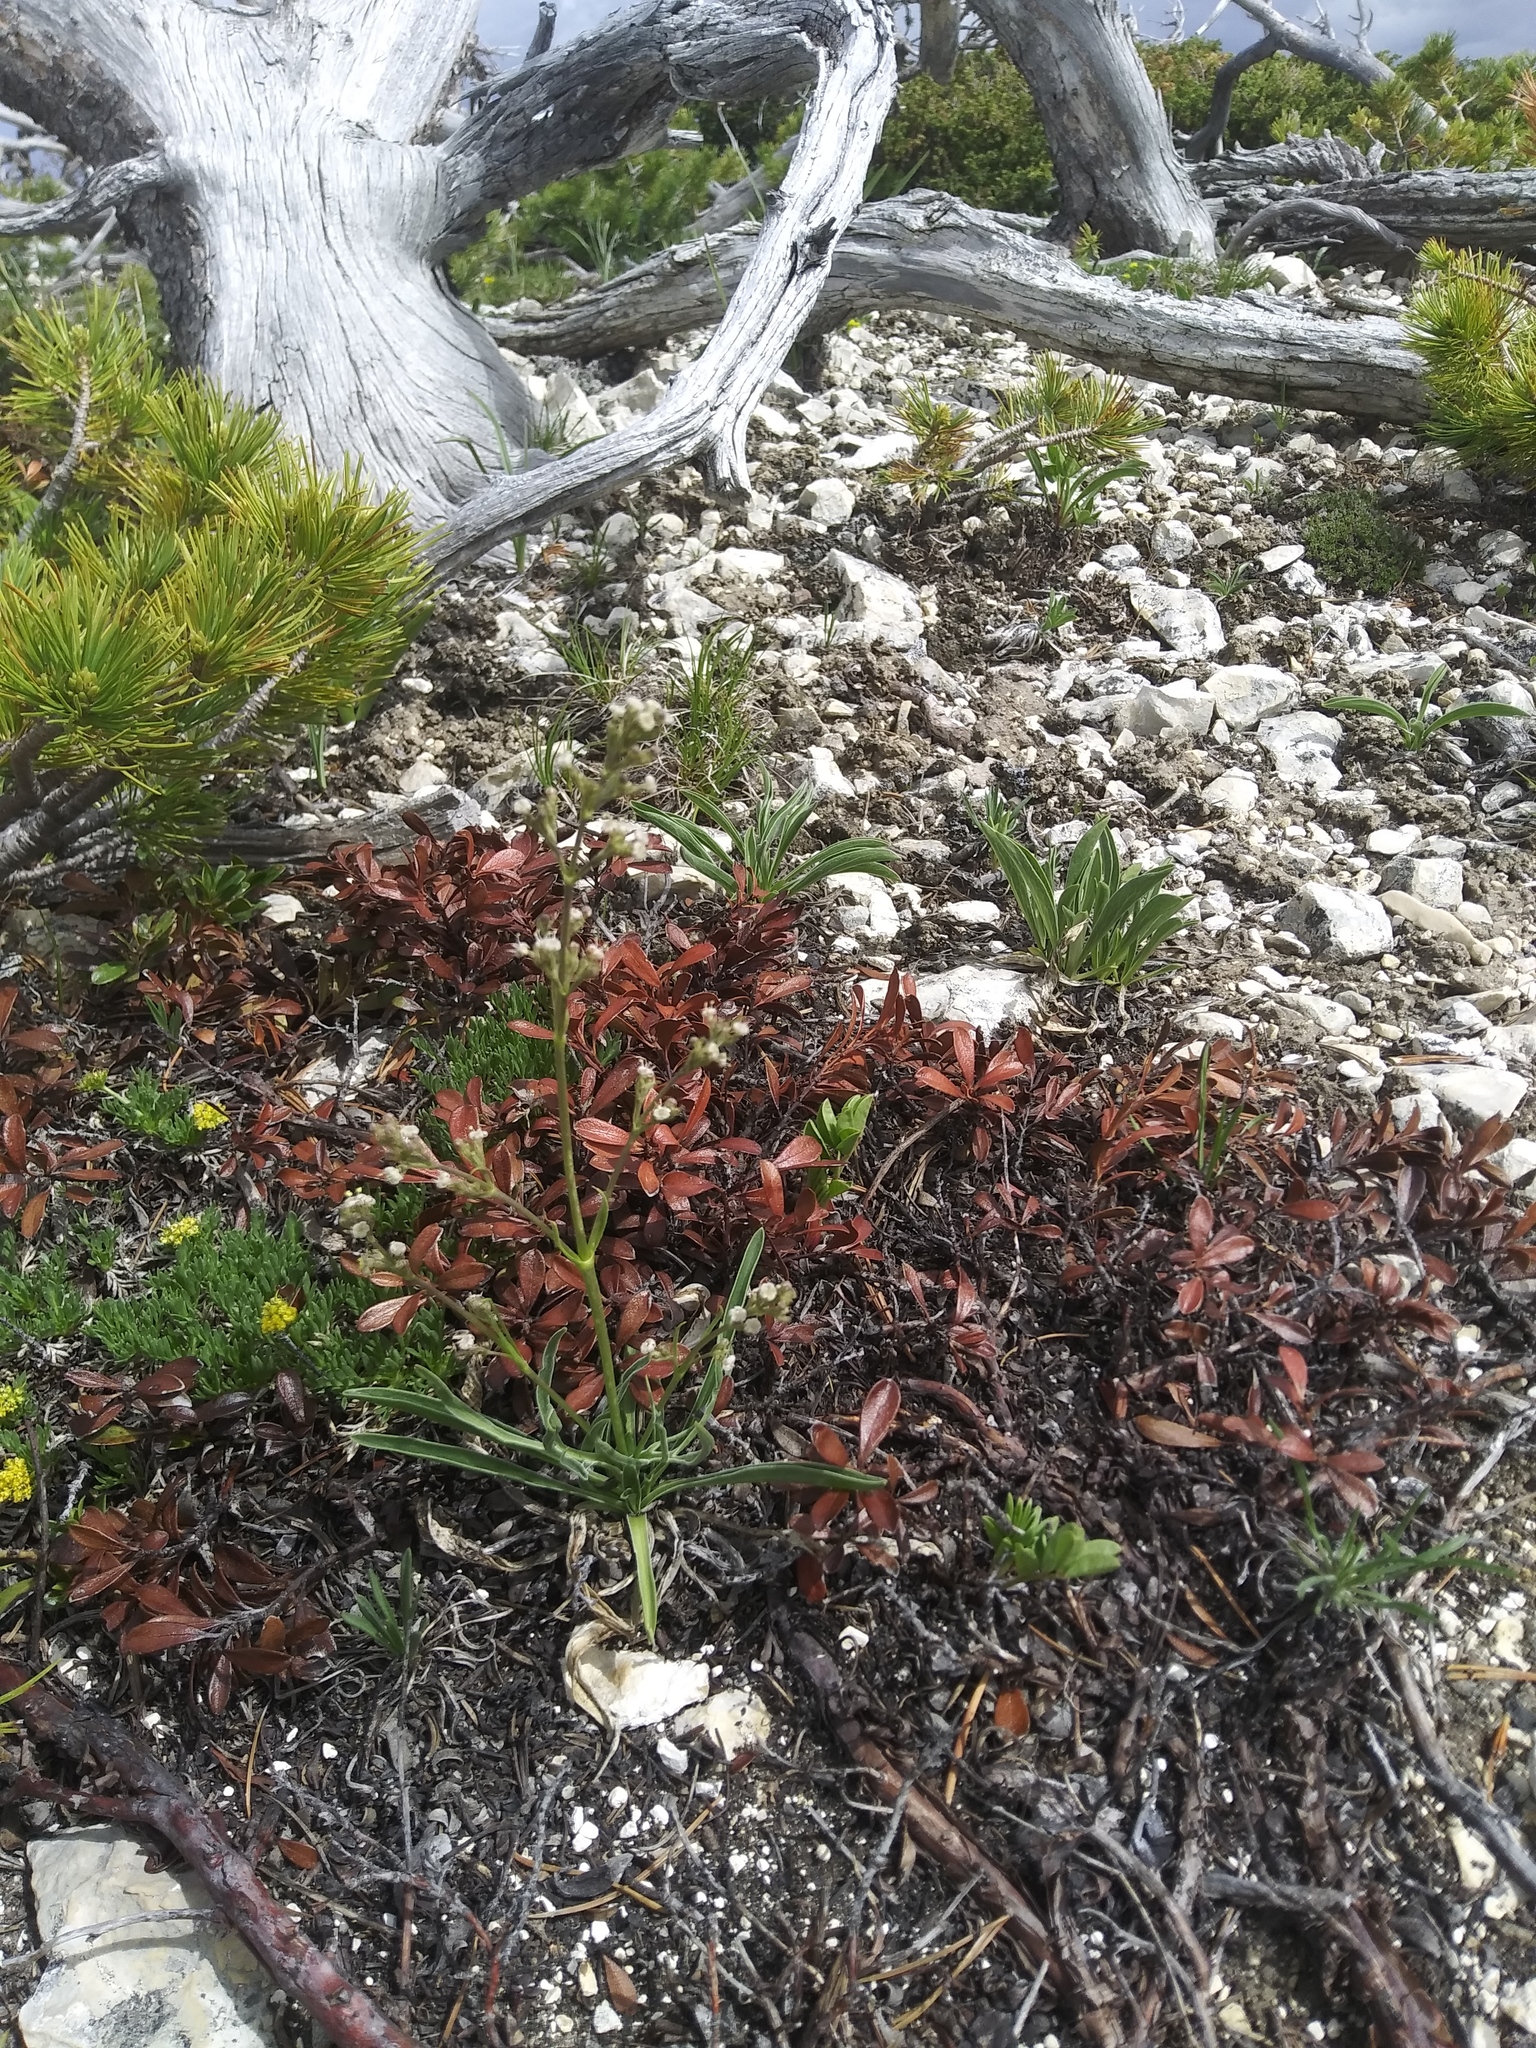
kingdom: Plantae
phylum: Tracheophyta
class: Magnoliopsida
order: Dipsacales
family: Caprifoliaceae
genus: Valeriana
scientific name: Valeriana edulis
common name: Taproot valerian
